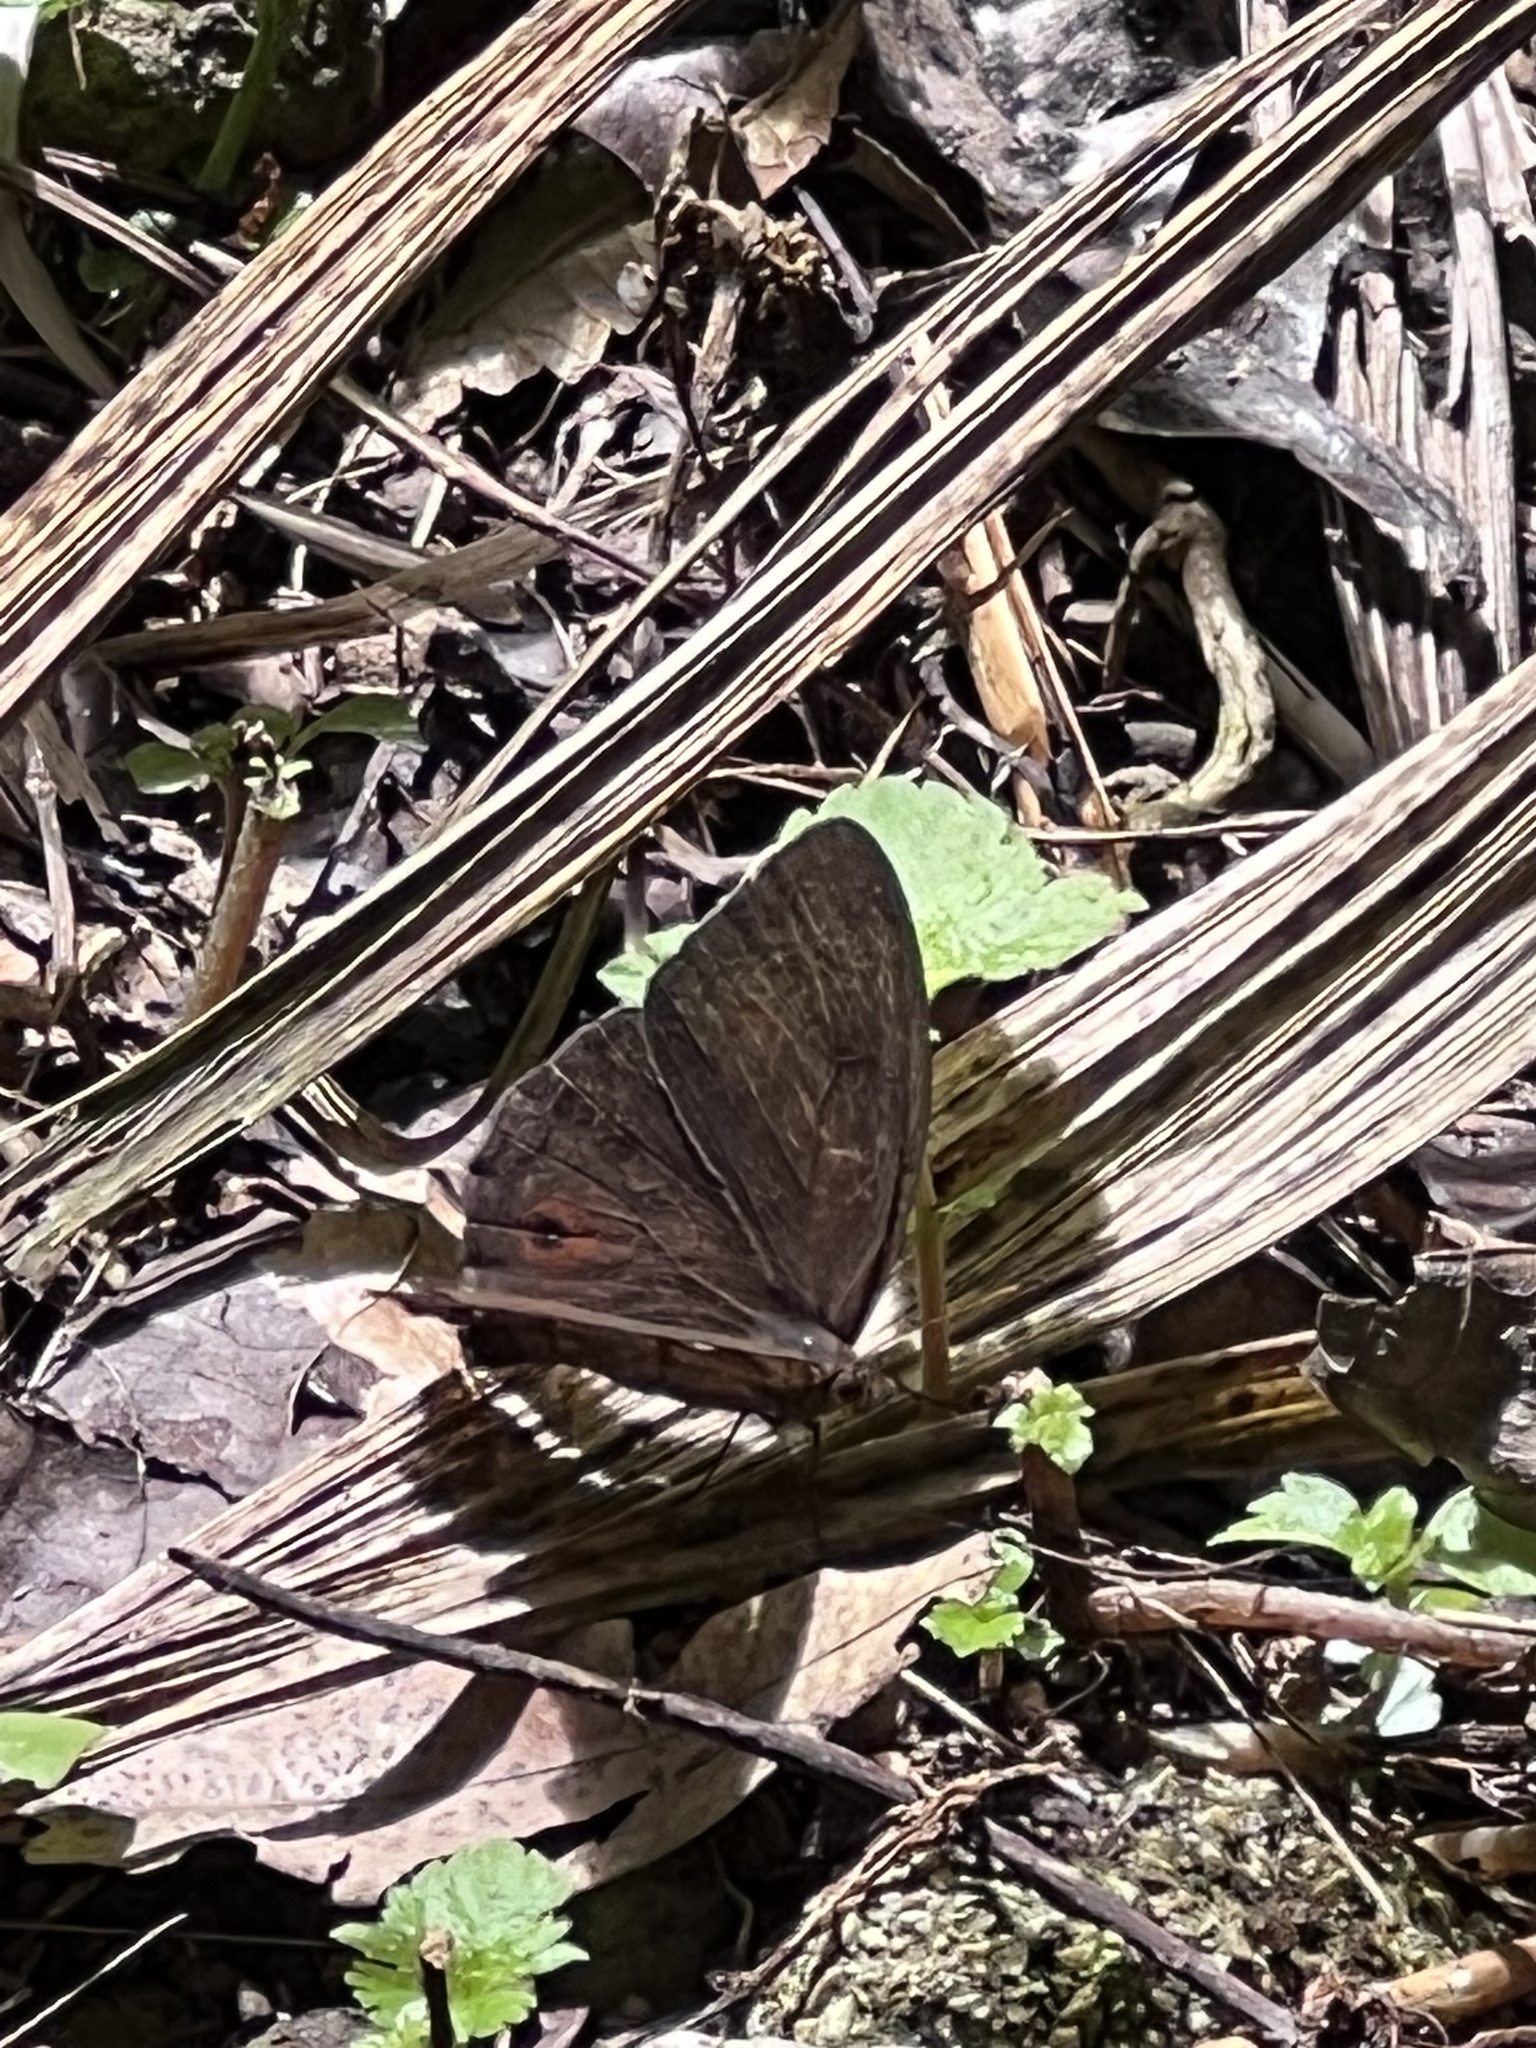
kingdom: Animalia
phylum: Arthropoda
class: Insecta
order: Lepidoptera
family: Nymphalidae
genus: Satyrotaygetis
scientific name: Satyrotaygetis satyrina
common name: Wide-bordered satyr
